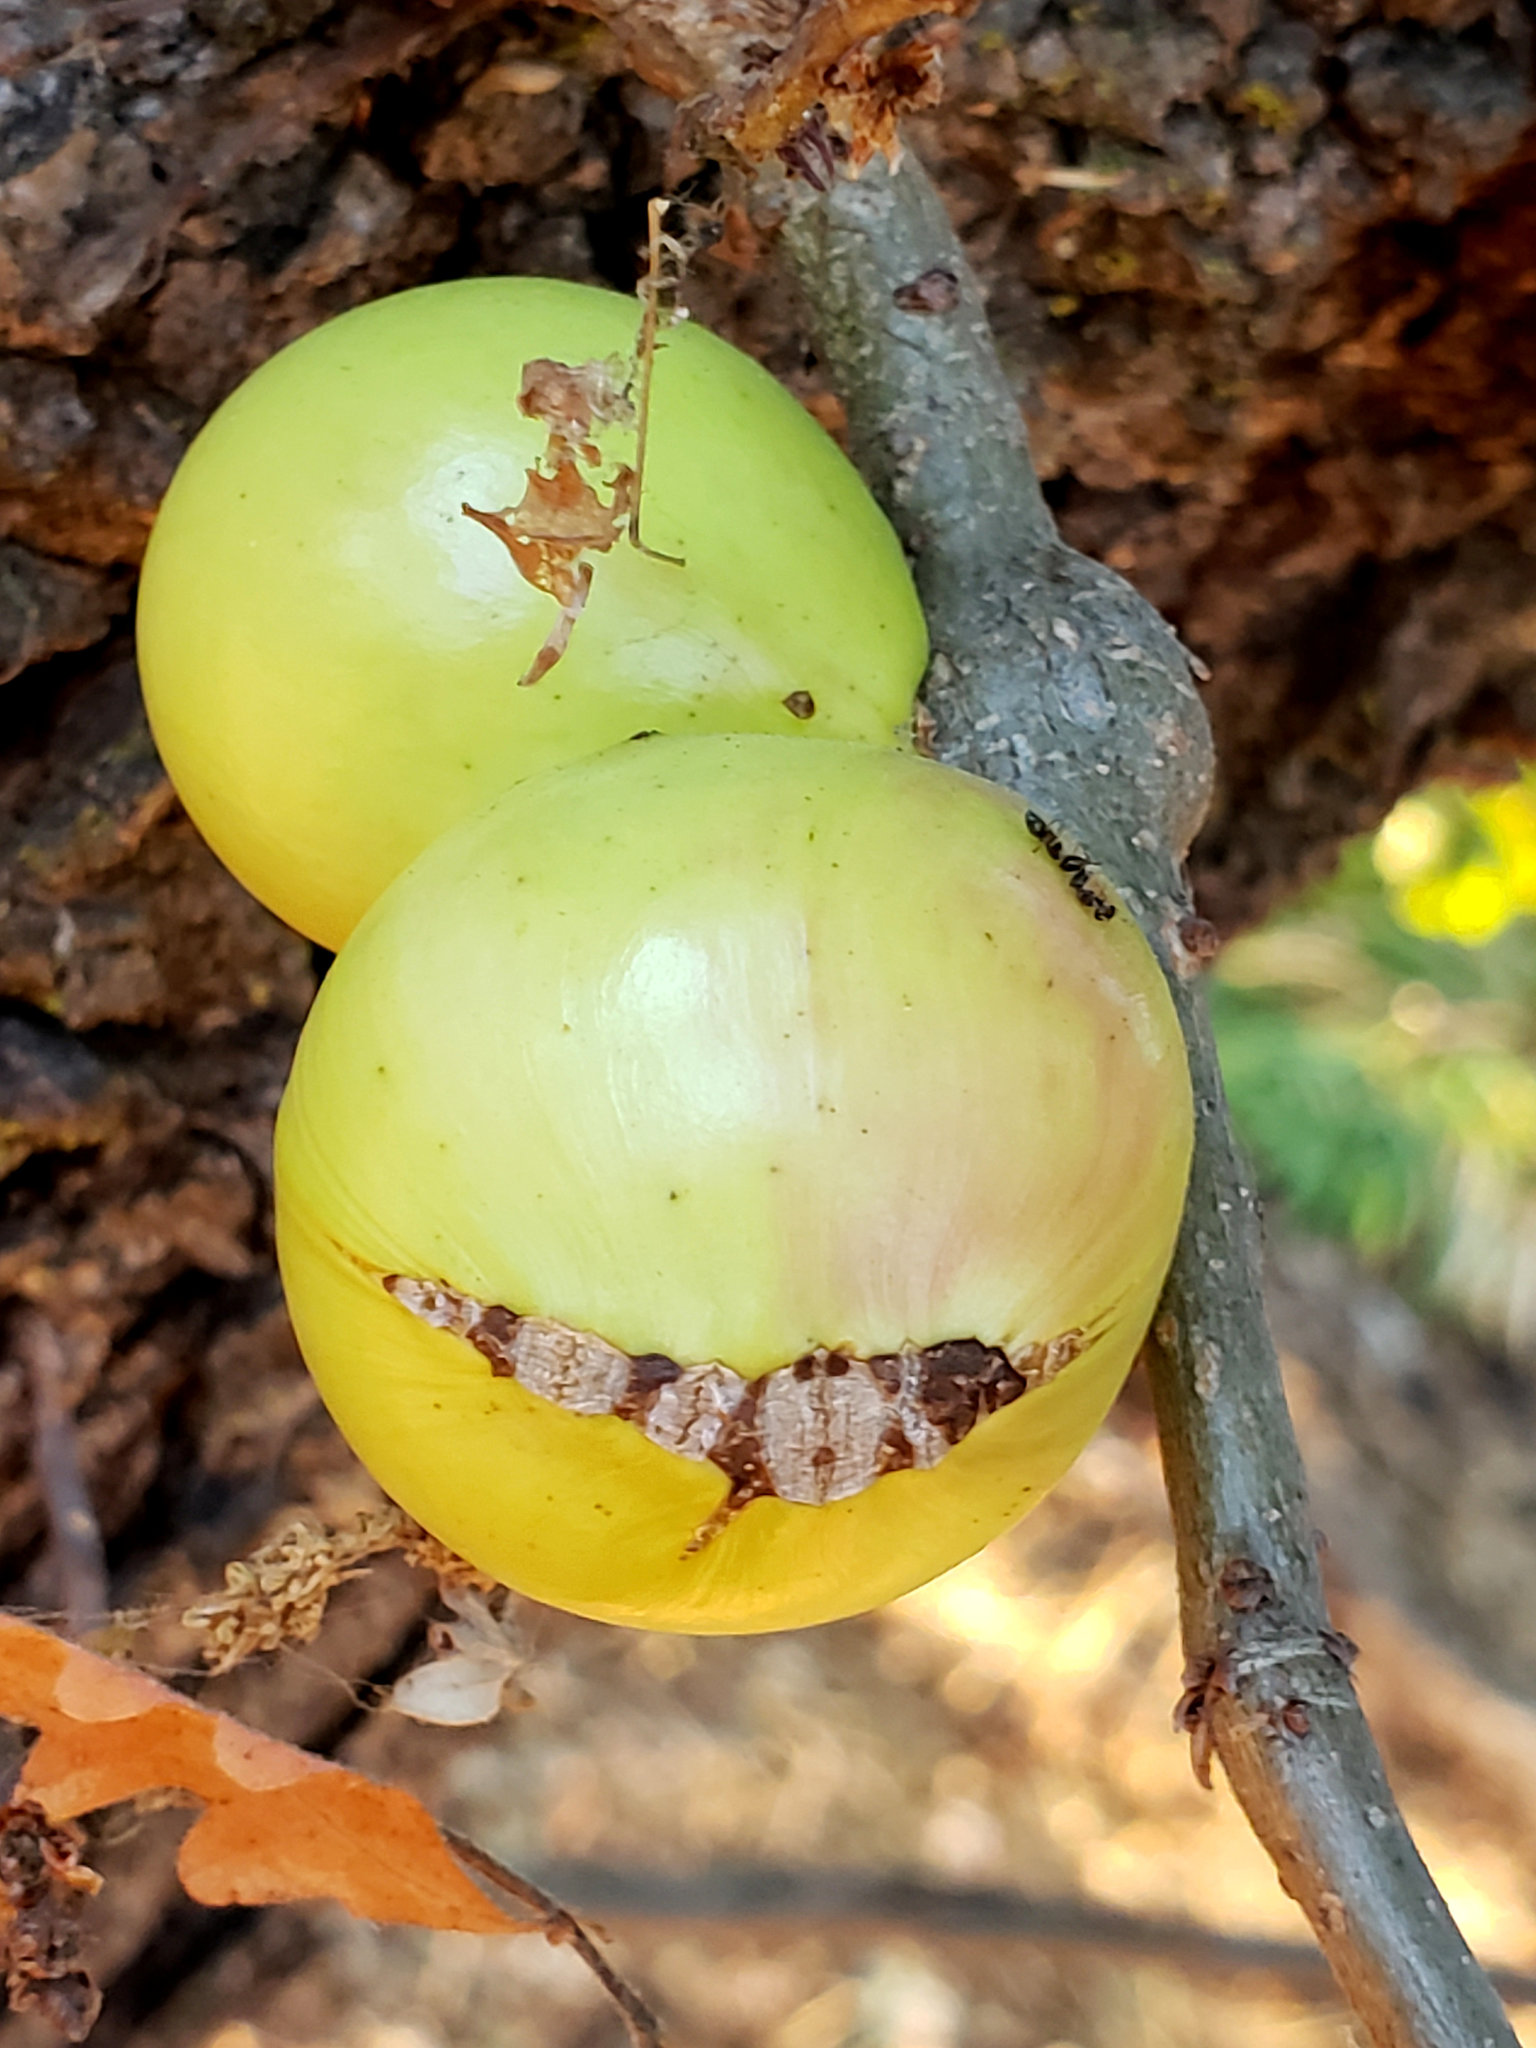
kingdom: Animalia
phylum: Arthropoda
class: Insecta
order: Hymenoptera
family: Cynipidae
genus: Andricus
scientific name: Andricus quercuscalifornicus
